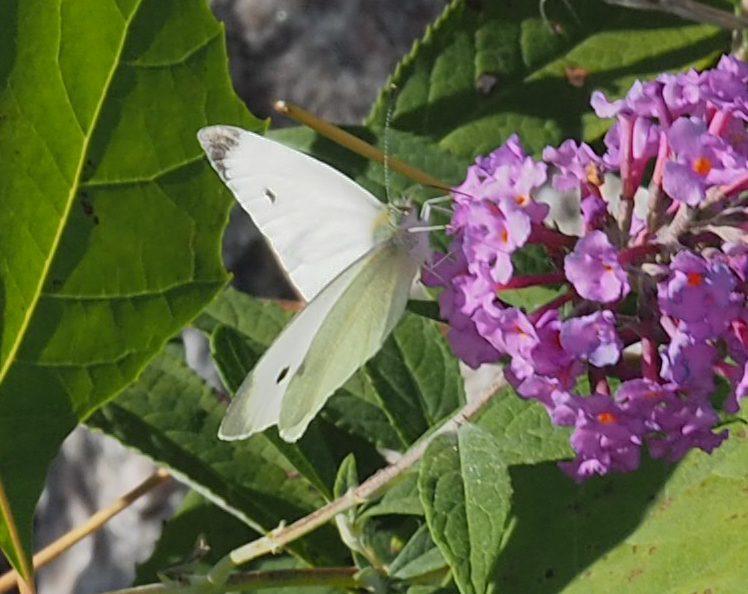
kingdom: Animalia
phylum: Arthropoda
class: Insecta
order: Lepidoptera
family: Pieridae
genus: Pieris
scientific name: Pieris rapae
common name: Small white
